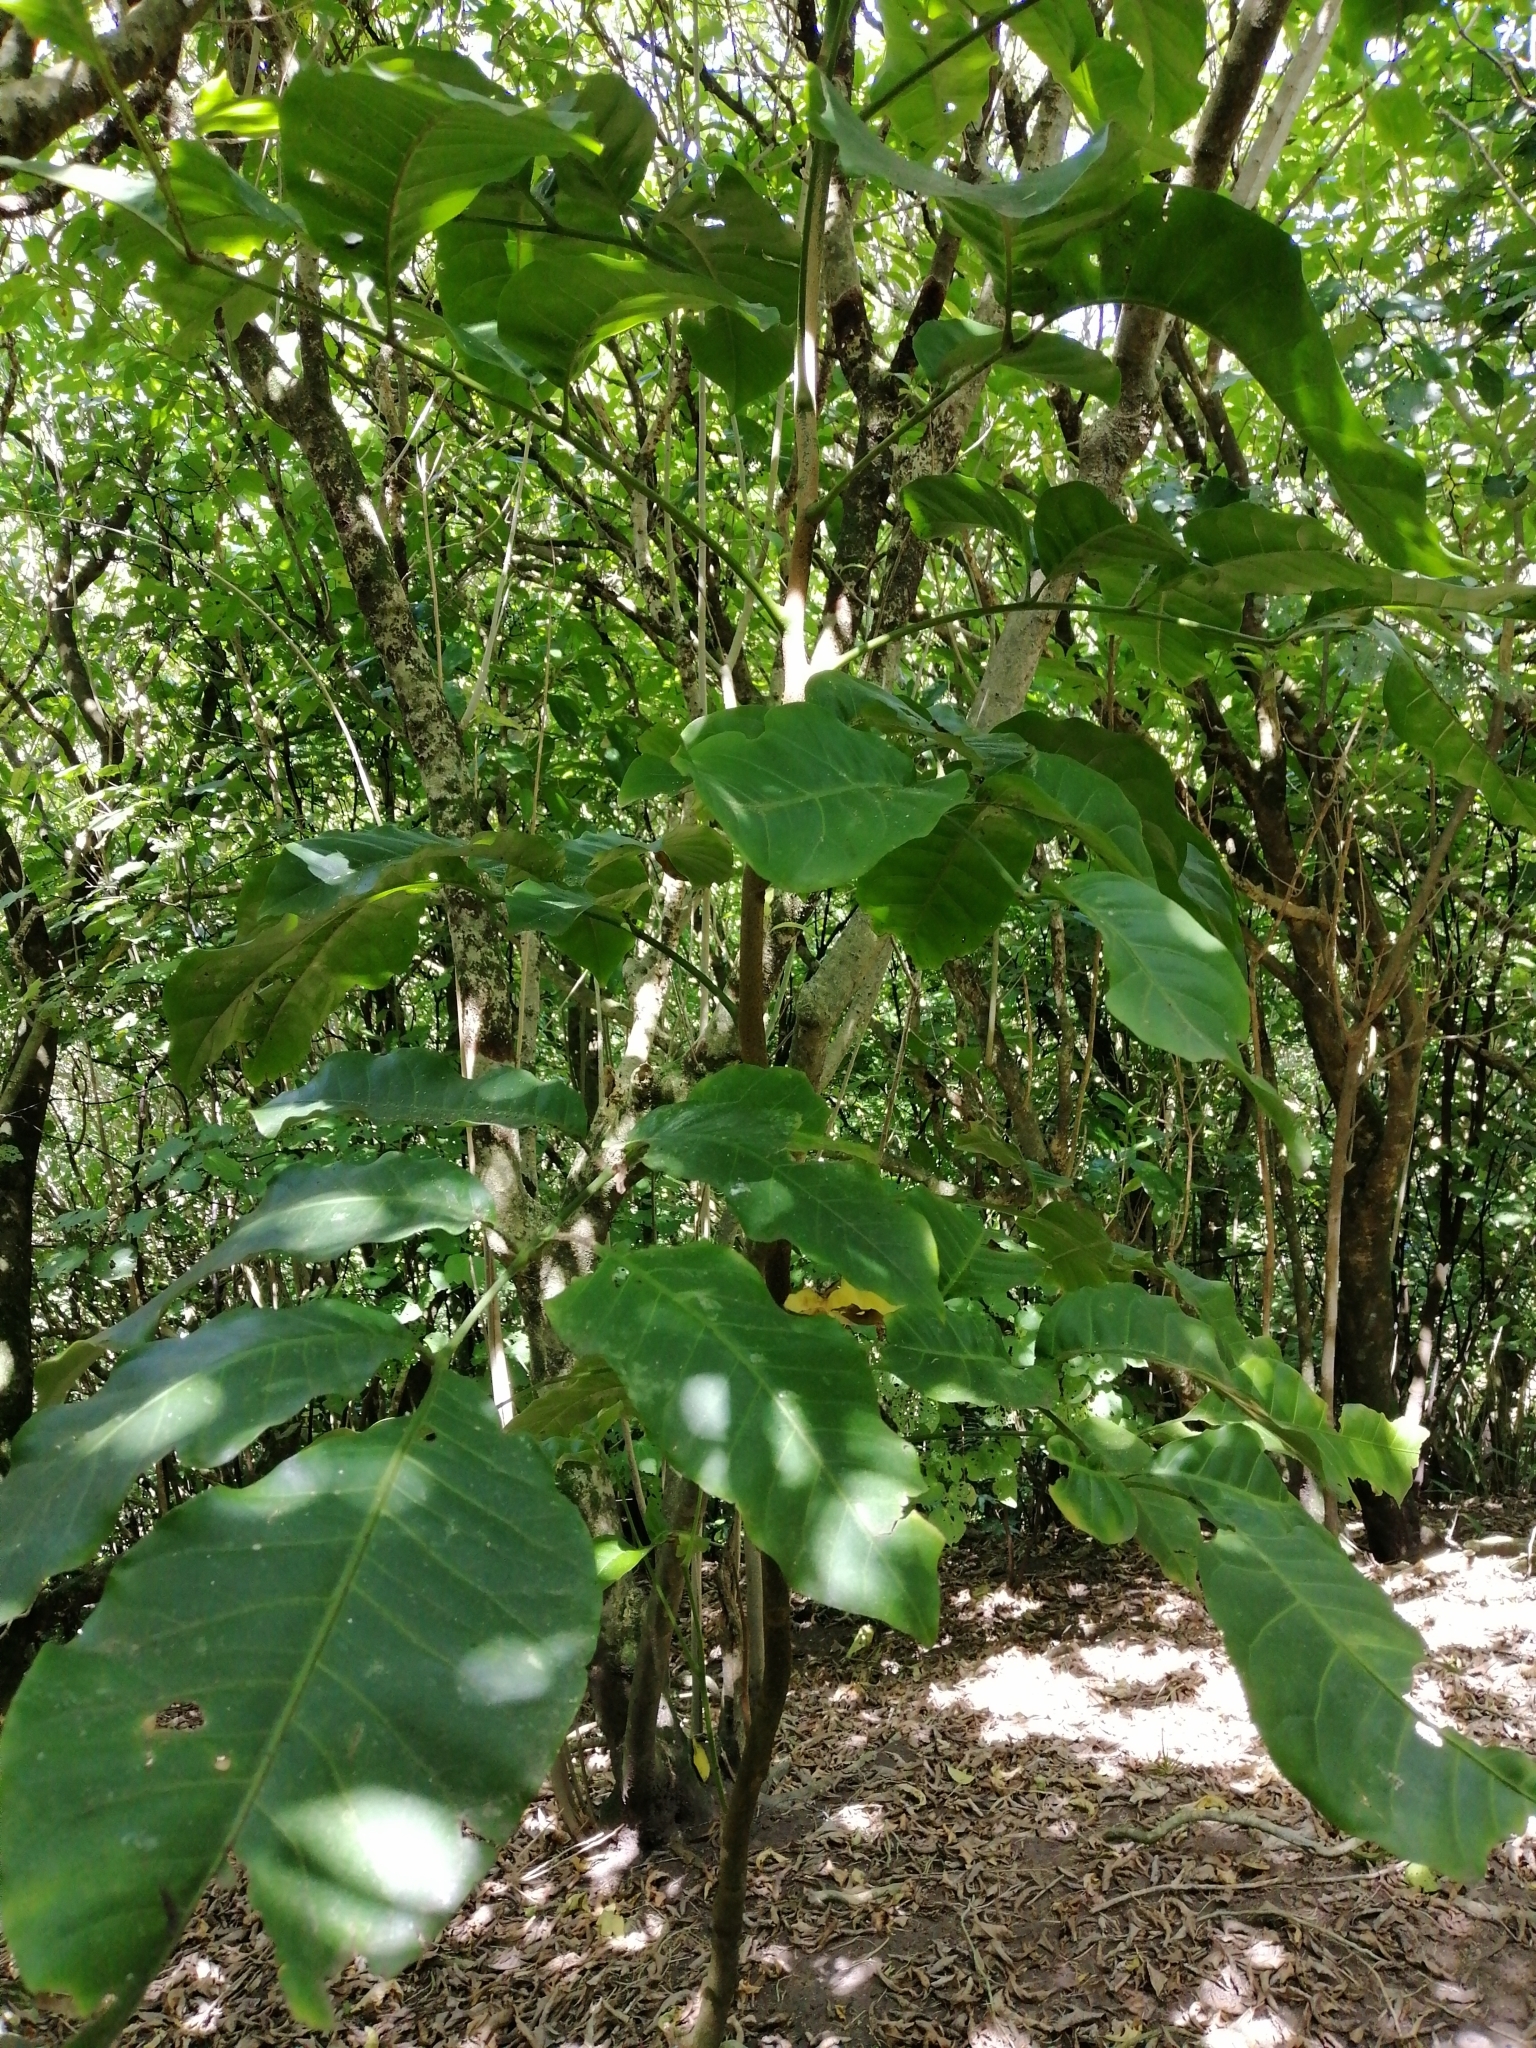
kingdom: Plantae
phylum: Tracheophyta
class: Magnoliopsida
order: Sapindales
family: Meliaceae
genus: Didymocheton
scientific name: Didymocheton spectabilis
